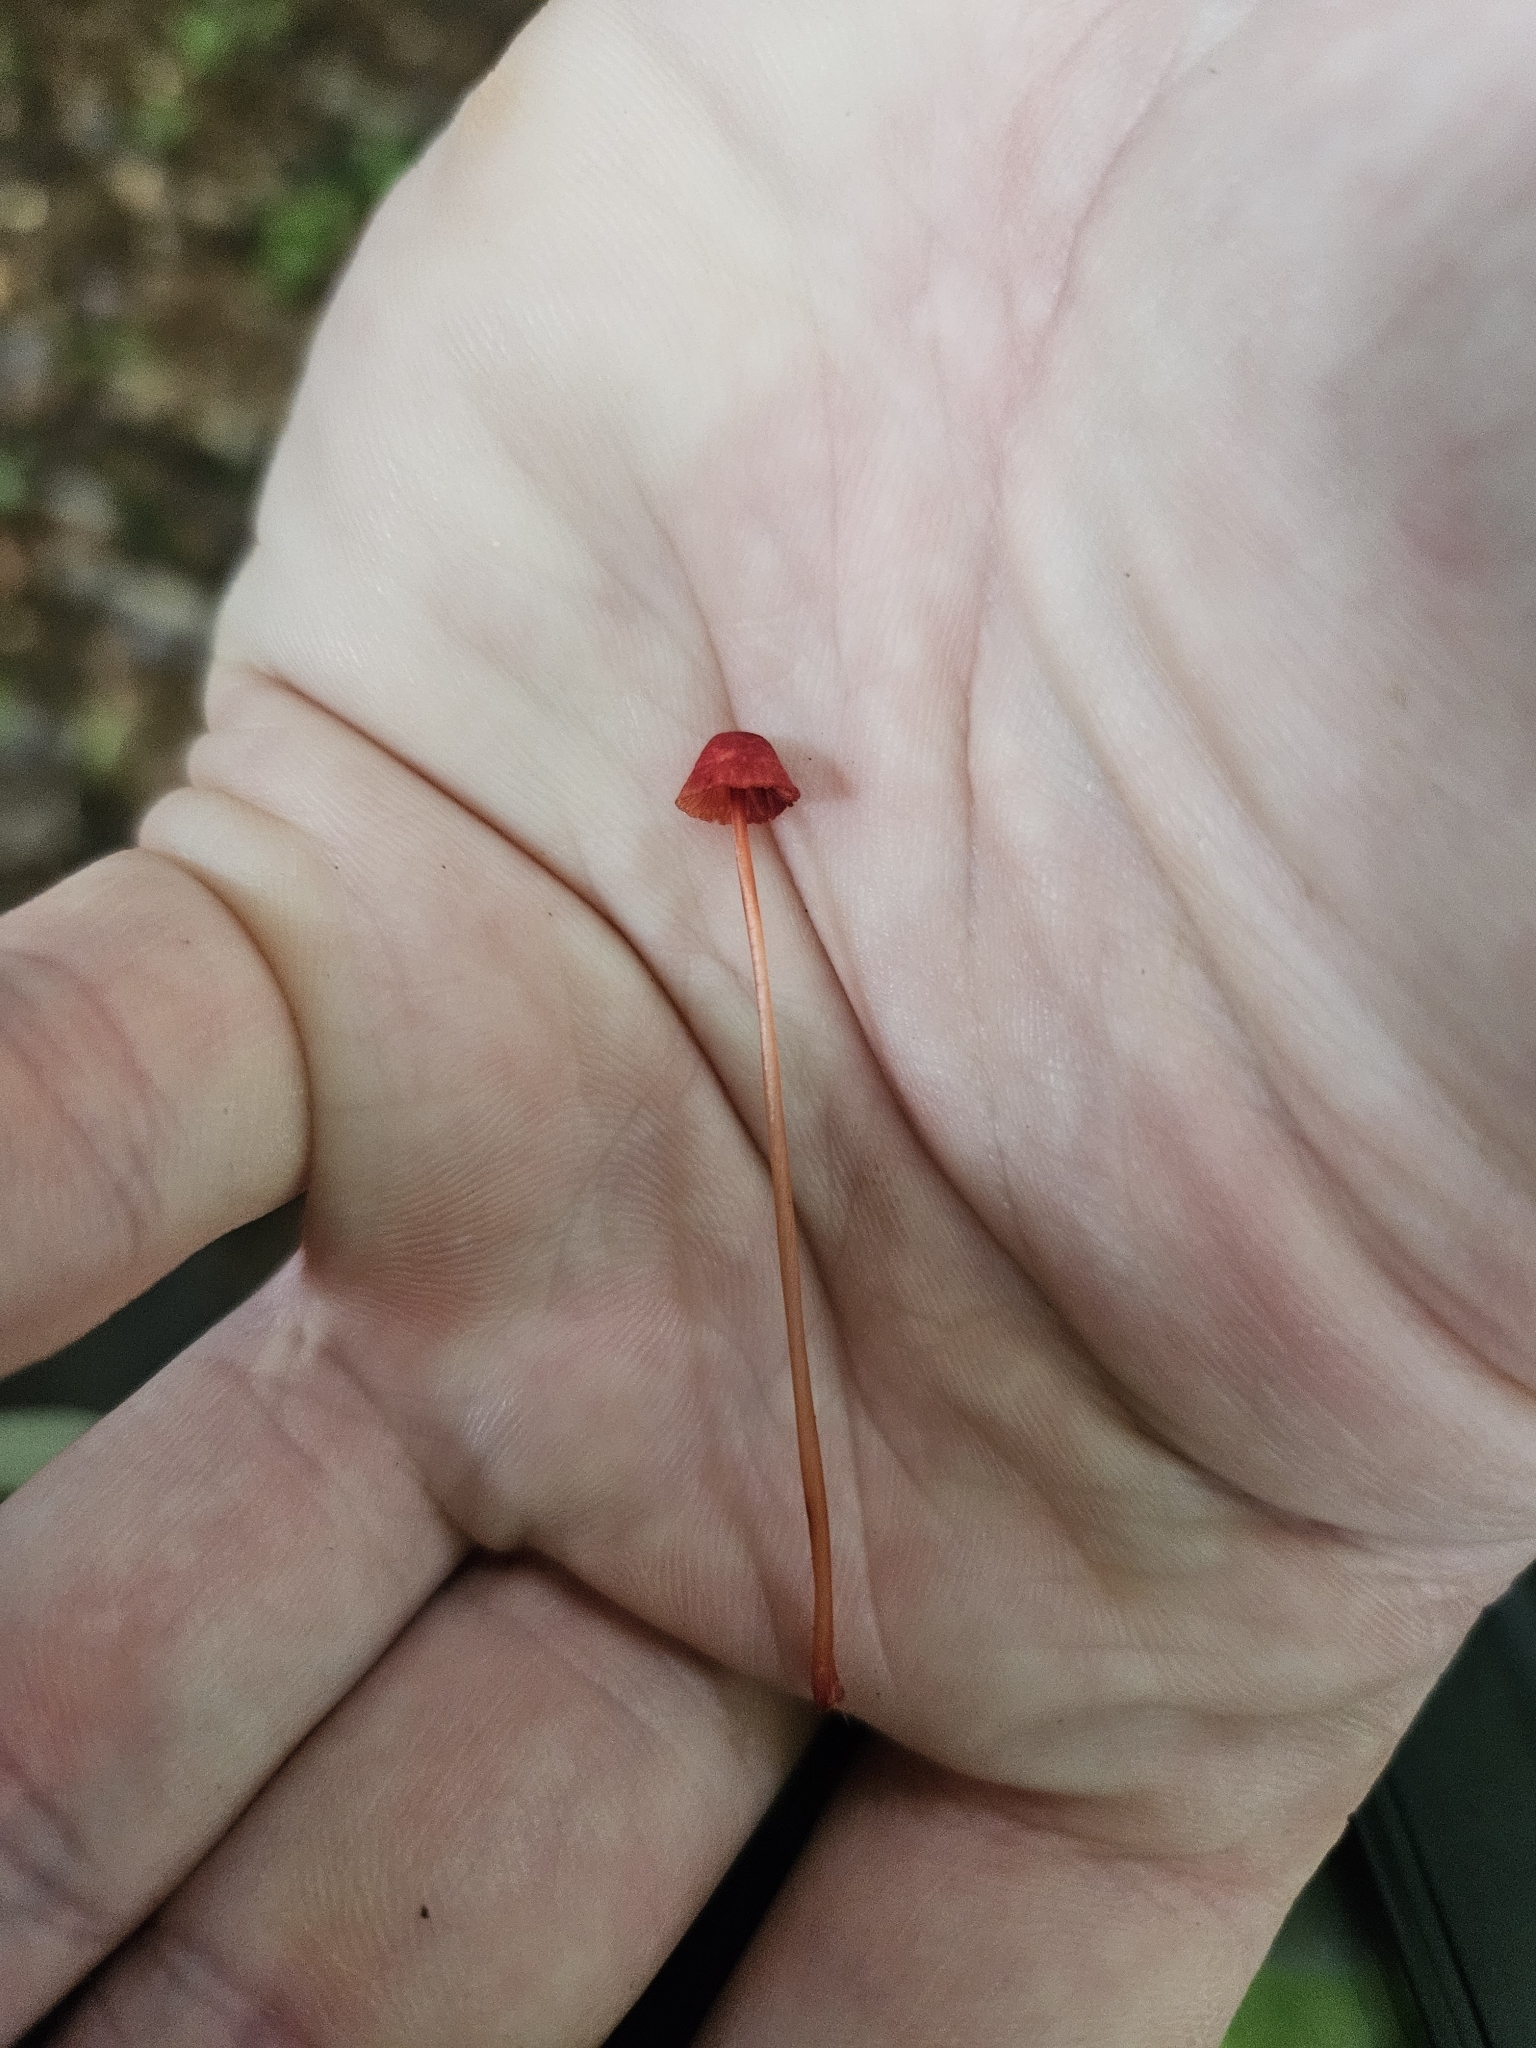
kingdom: Fungi
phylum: Basidiomycota
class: Agaricomycetes
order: Agaricales
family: Mycenaceae
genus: Mycena
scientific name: Mycena ura
